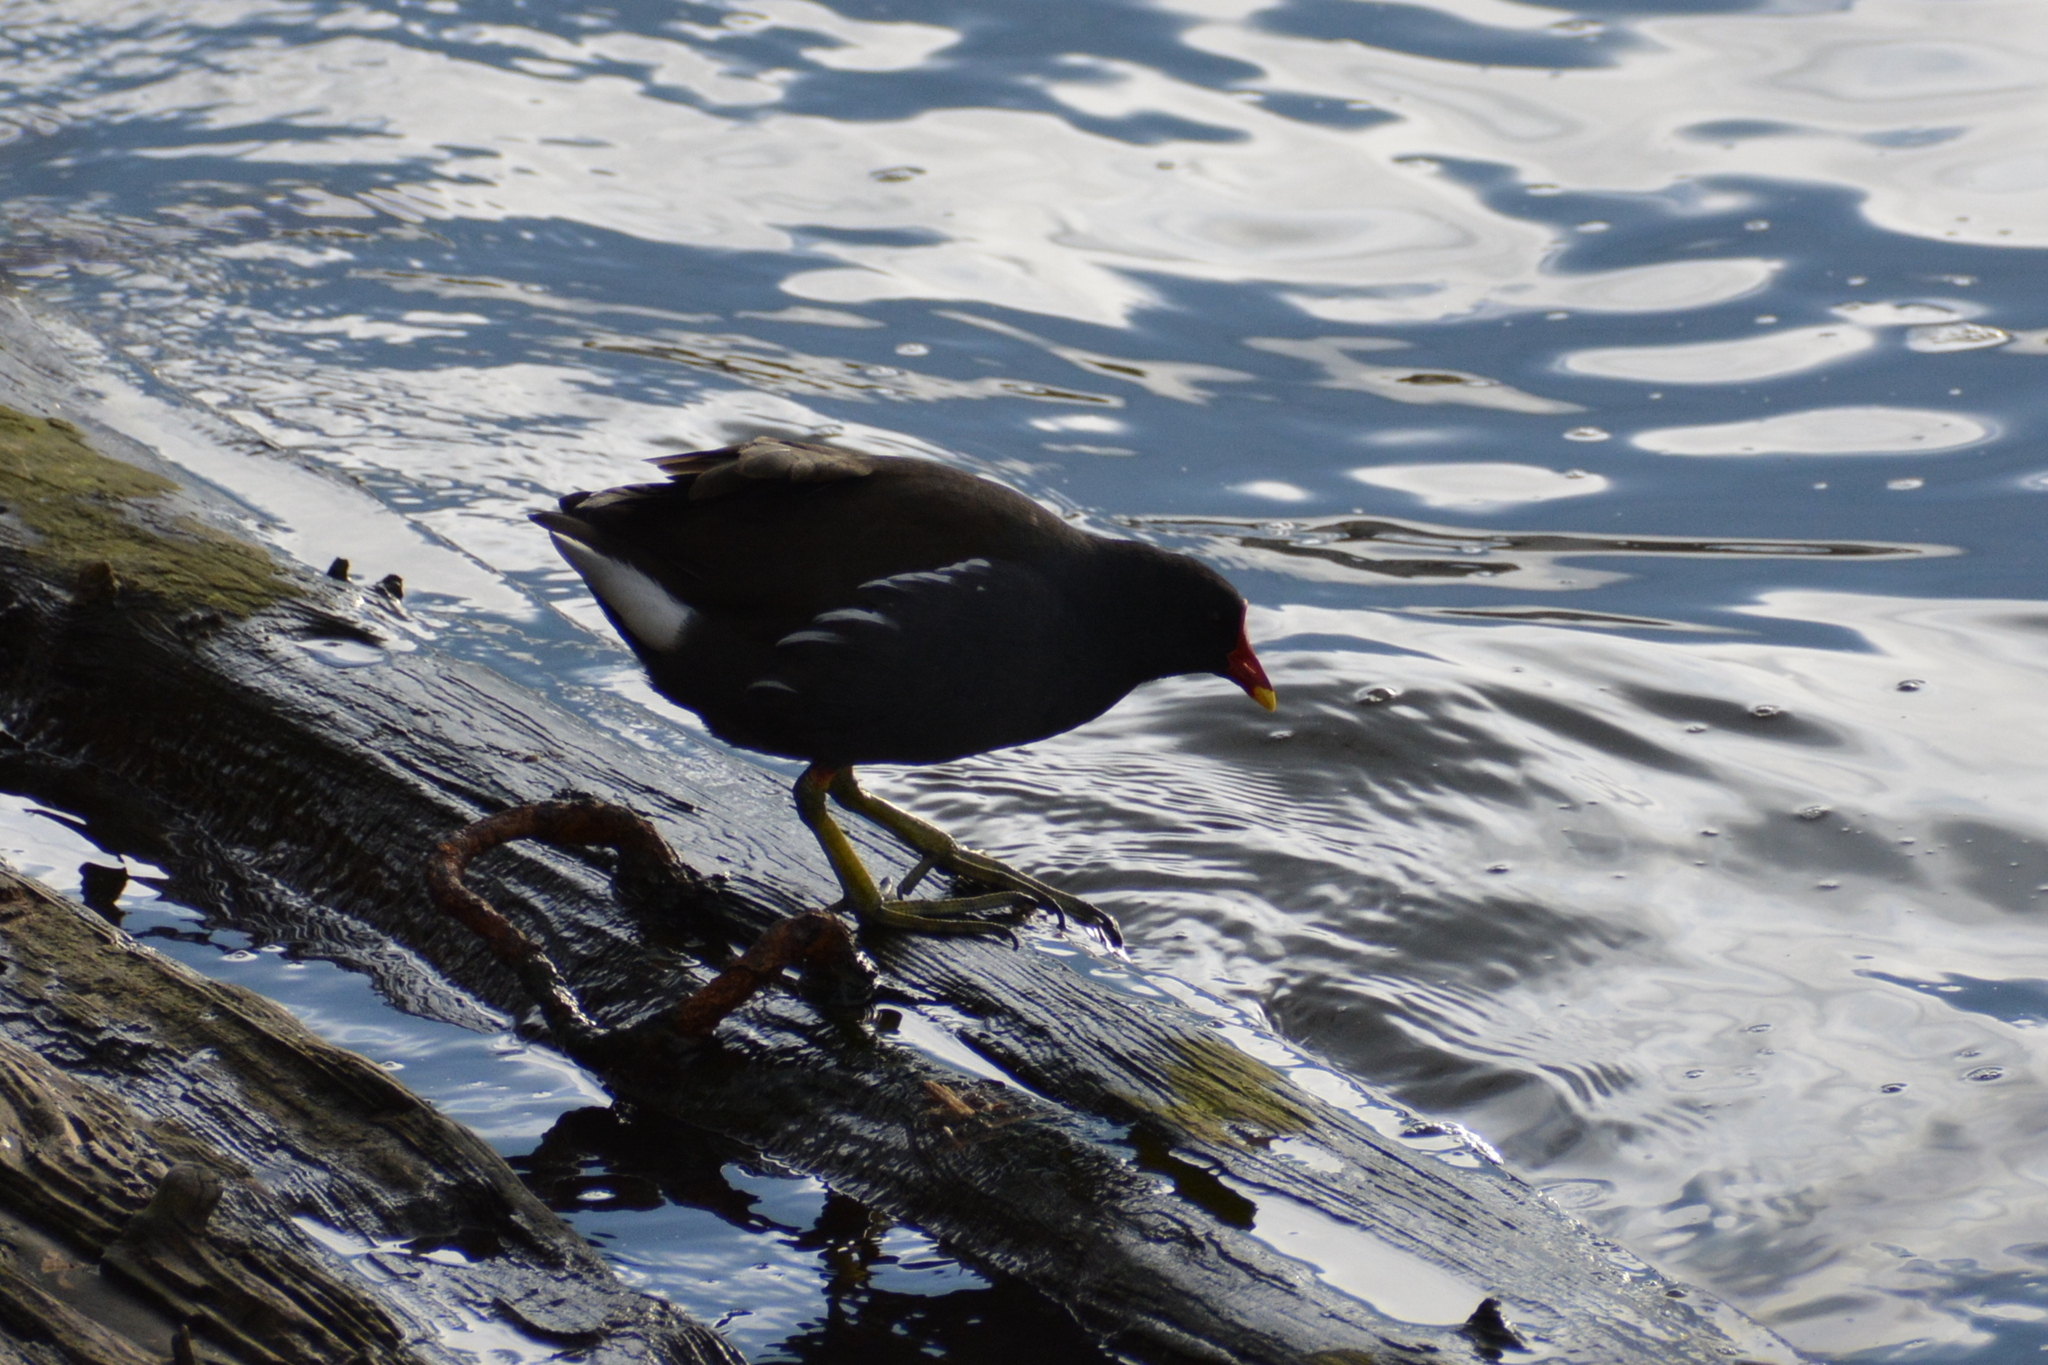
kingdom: Animalia
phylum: Chordata
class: Aves
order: Gruiformes
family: Rallidae
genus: Gallinula
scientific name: Gallinula chloropus
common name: Common moorhen
